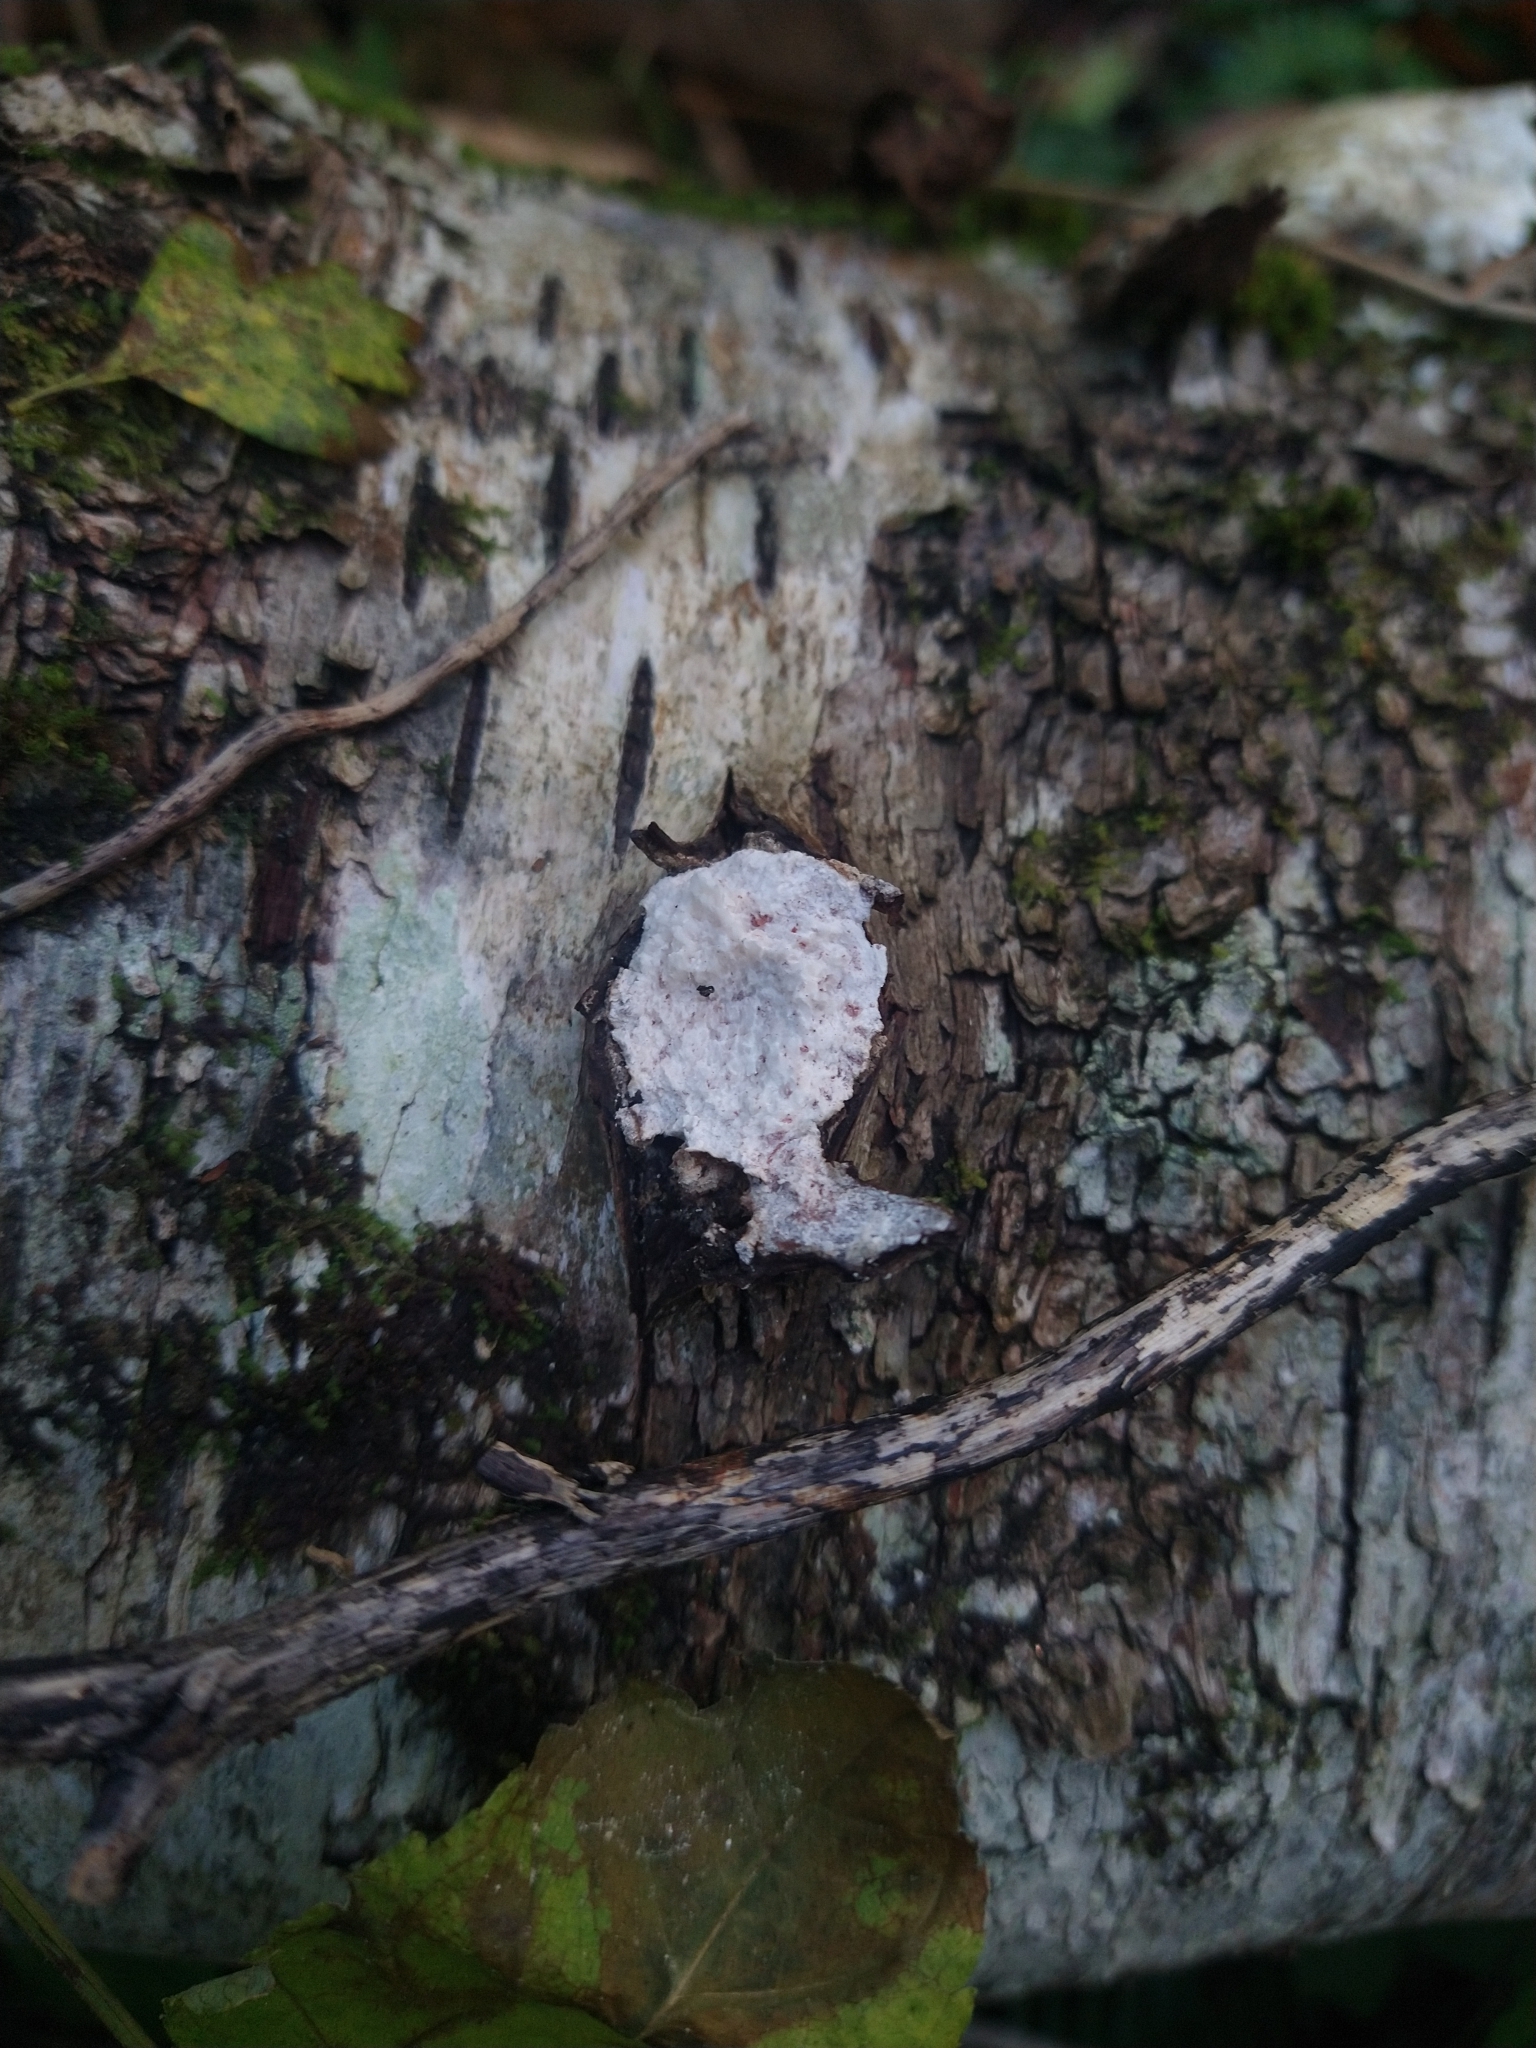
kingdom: Fungi
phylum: Basidiomycota
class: Agaricomycetes
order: Polyporales
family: Fomitopsidaceae
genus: Fomitopsis
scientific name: Fomitopsis betulina
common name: Birch polypore
